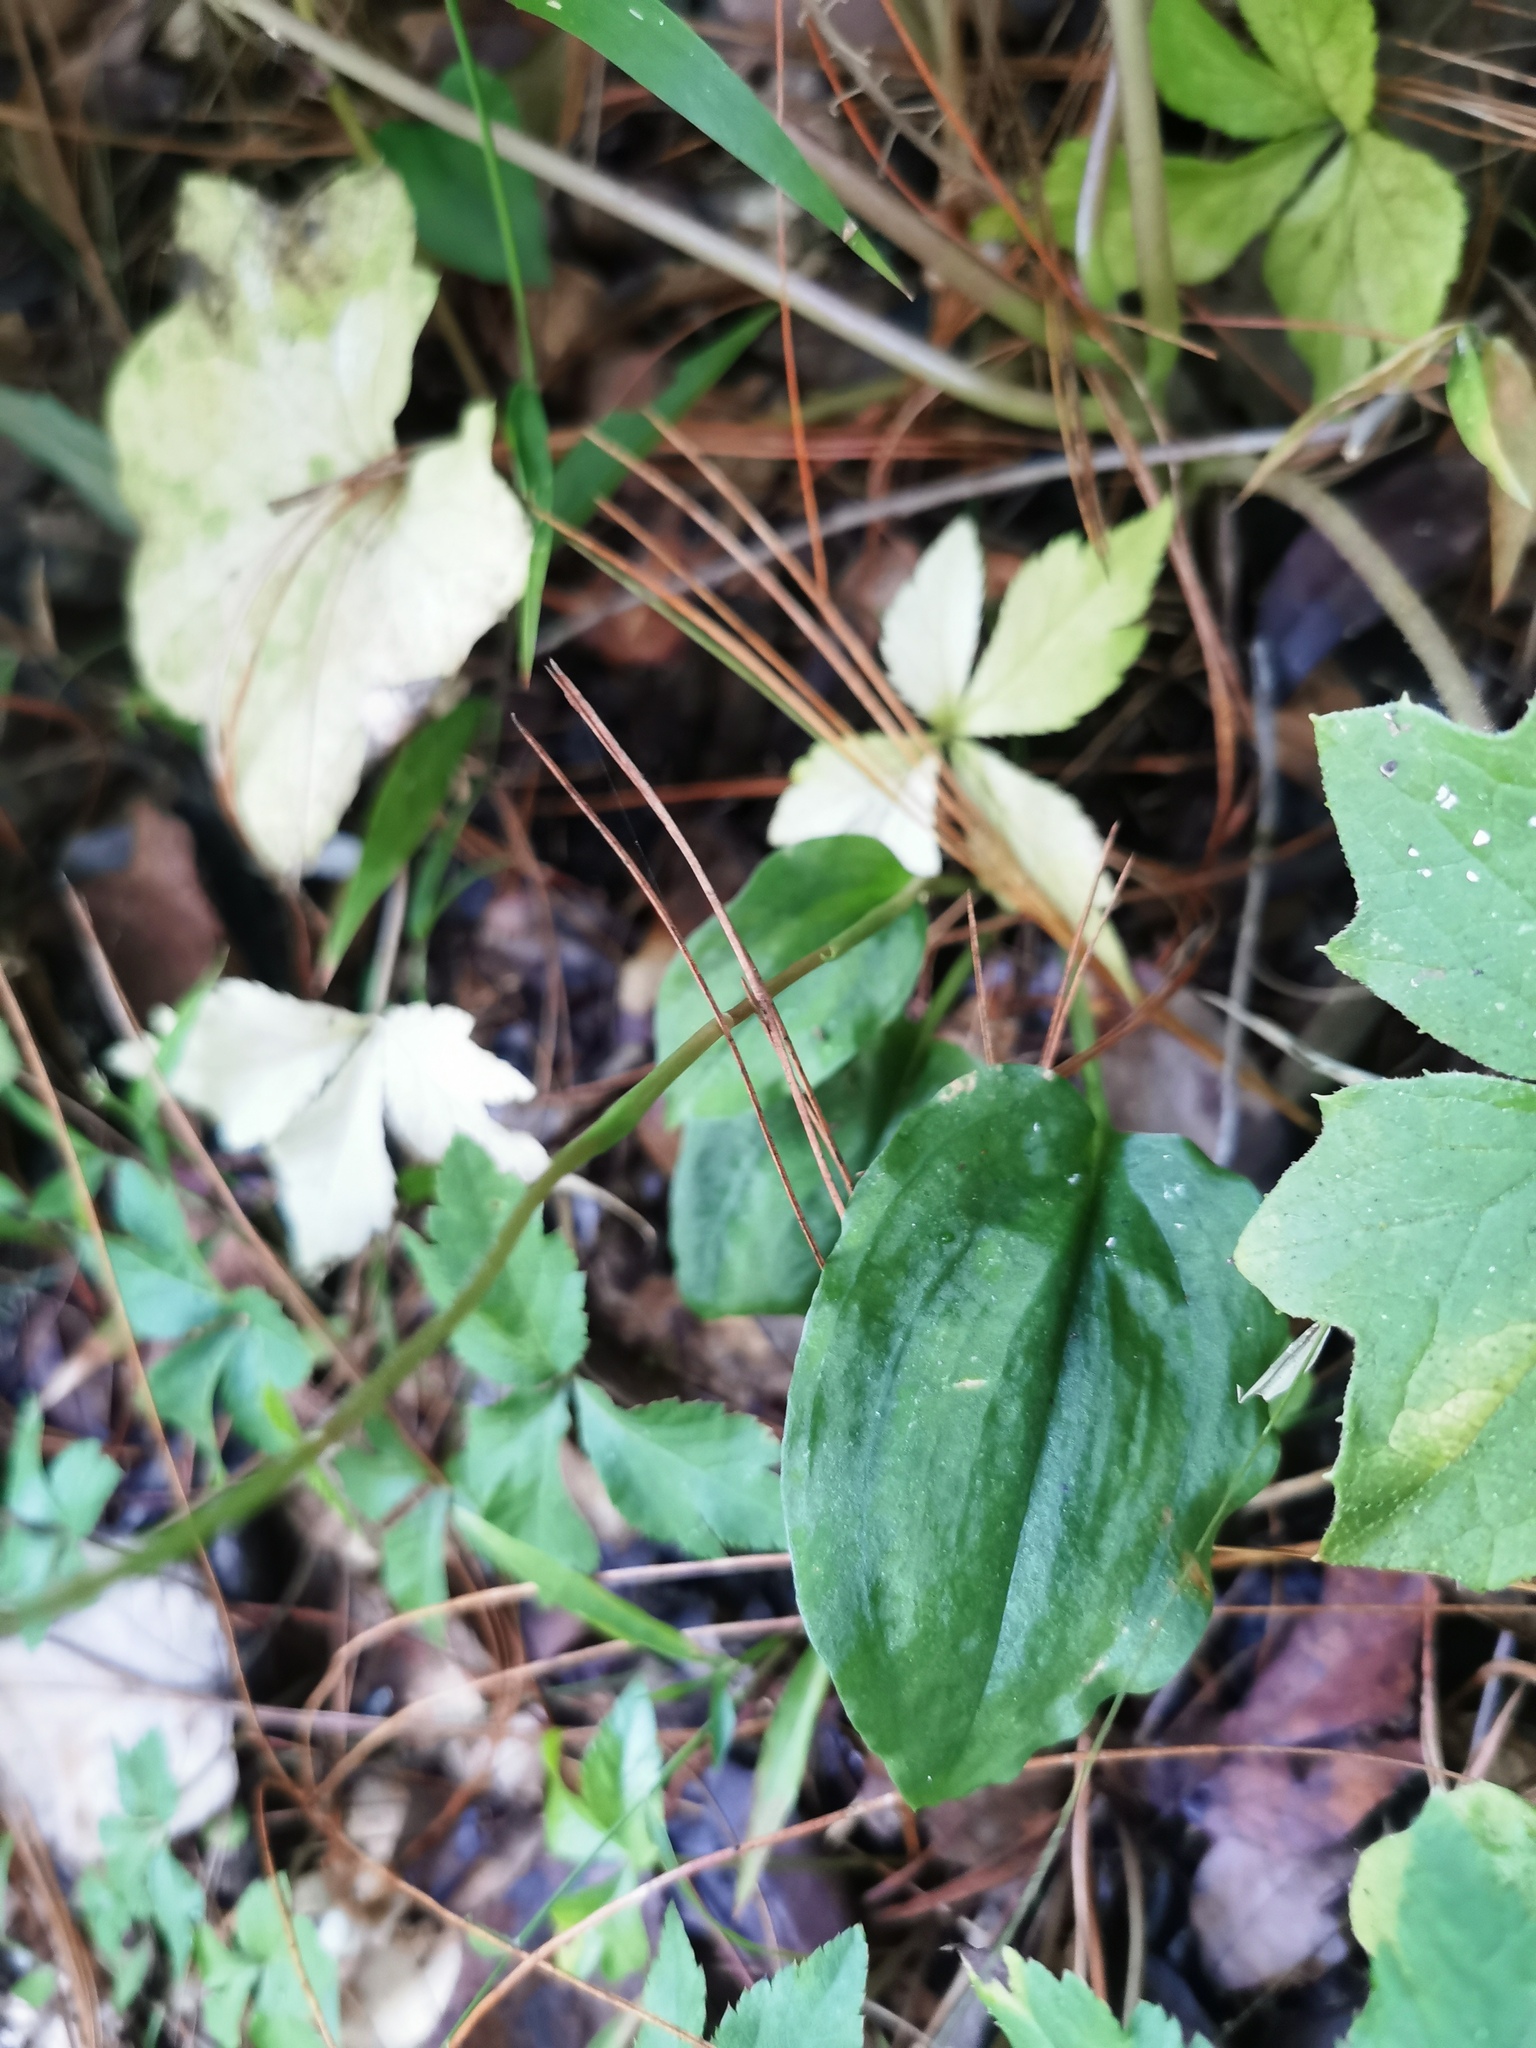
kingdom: Plantae
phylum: Tracheophyta
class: Liliopsida
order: Asparagales
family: Orchidaceae
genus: Cranichis
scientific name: Cranichis subumbellata
